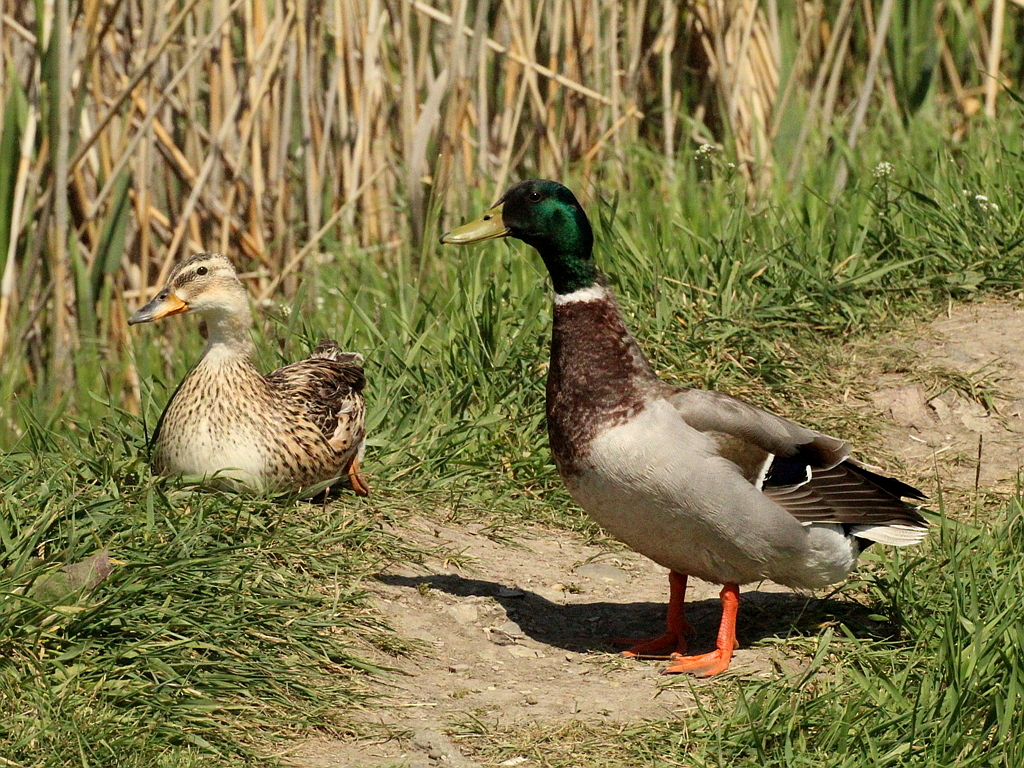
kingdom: Animalia
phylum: Chordata
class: Aves
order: Anseriformes
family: Anatidae
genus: Anas
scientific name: Anas platyrhynchos
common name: Mallard
